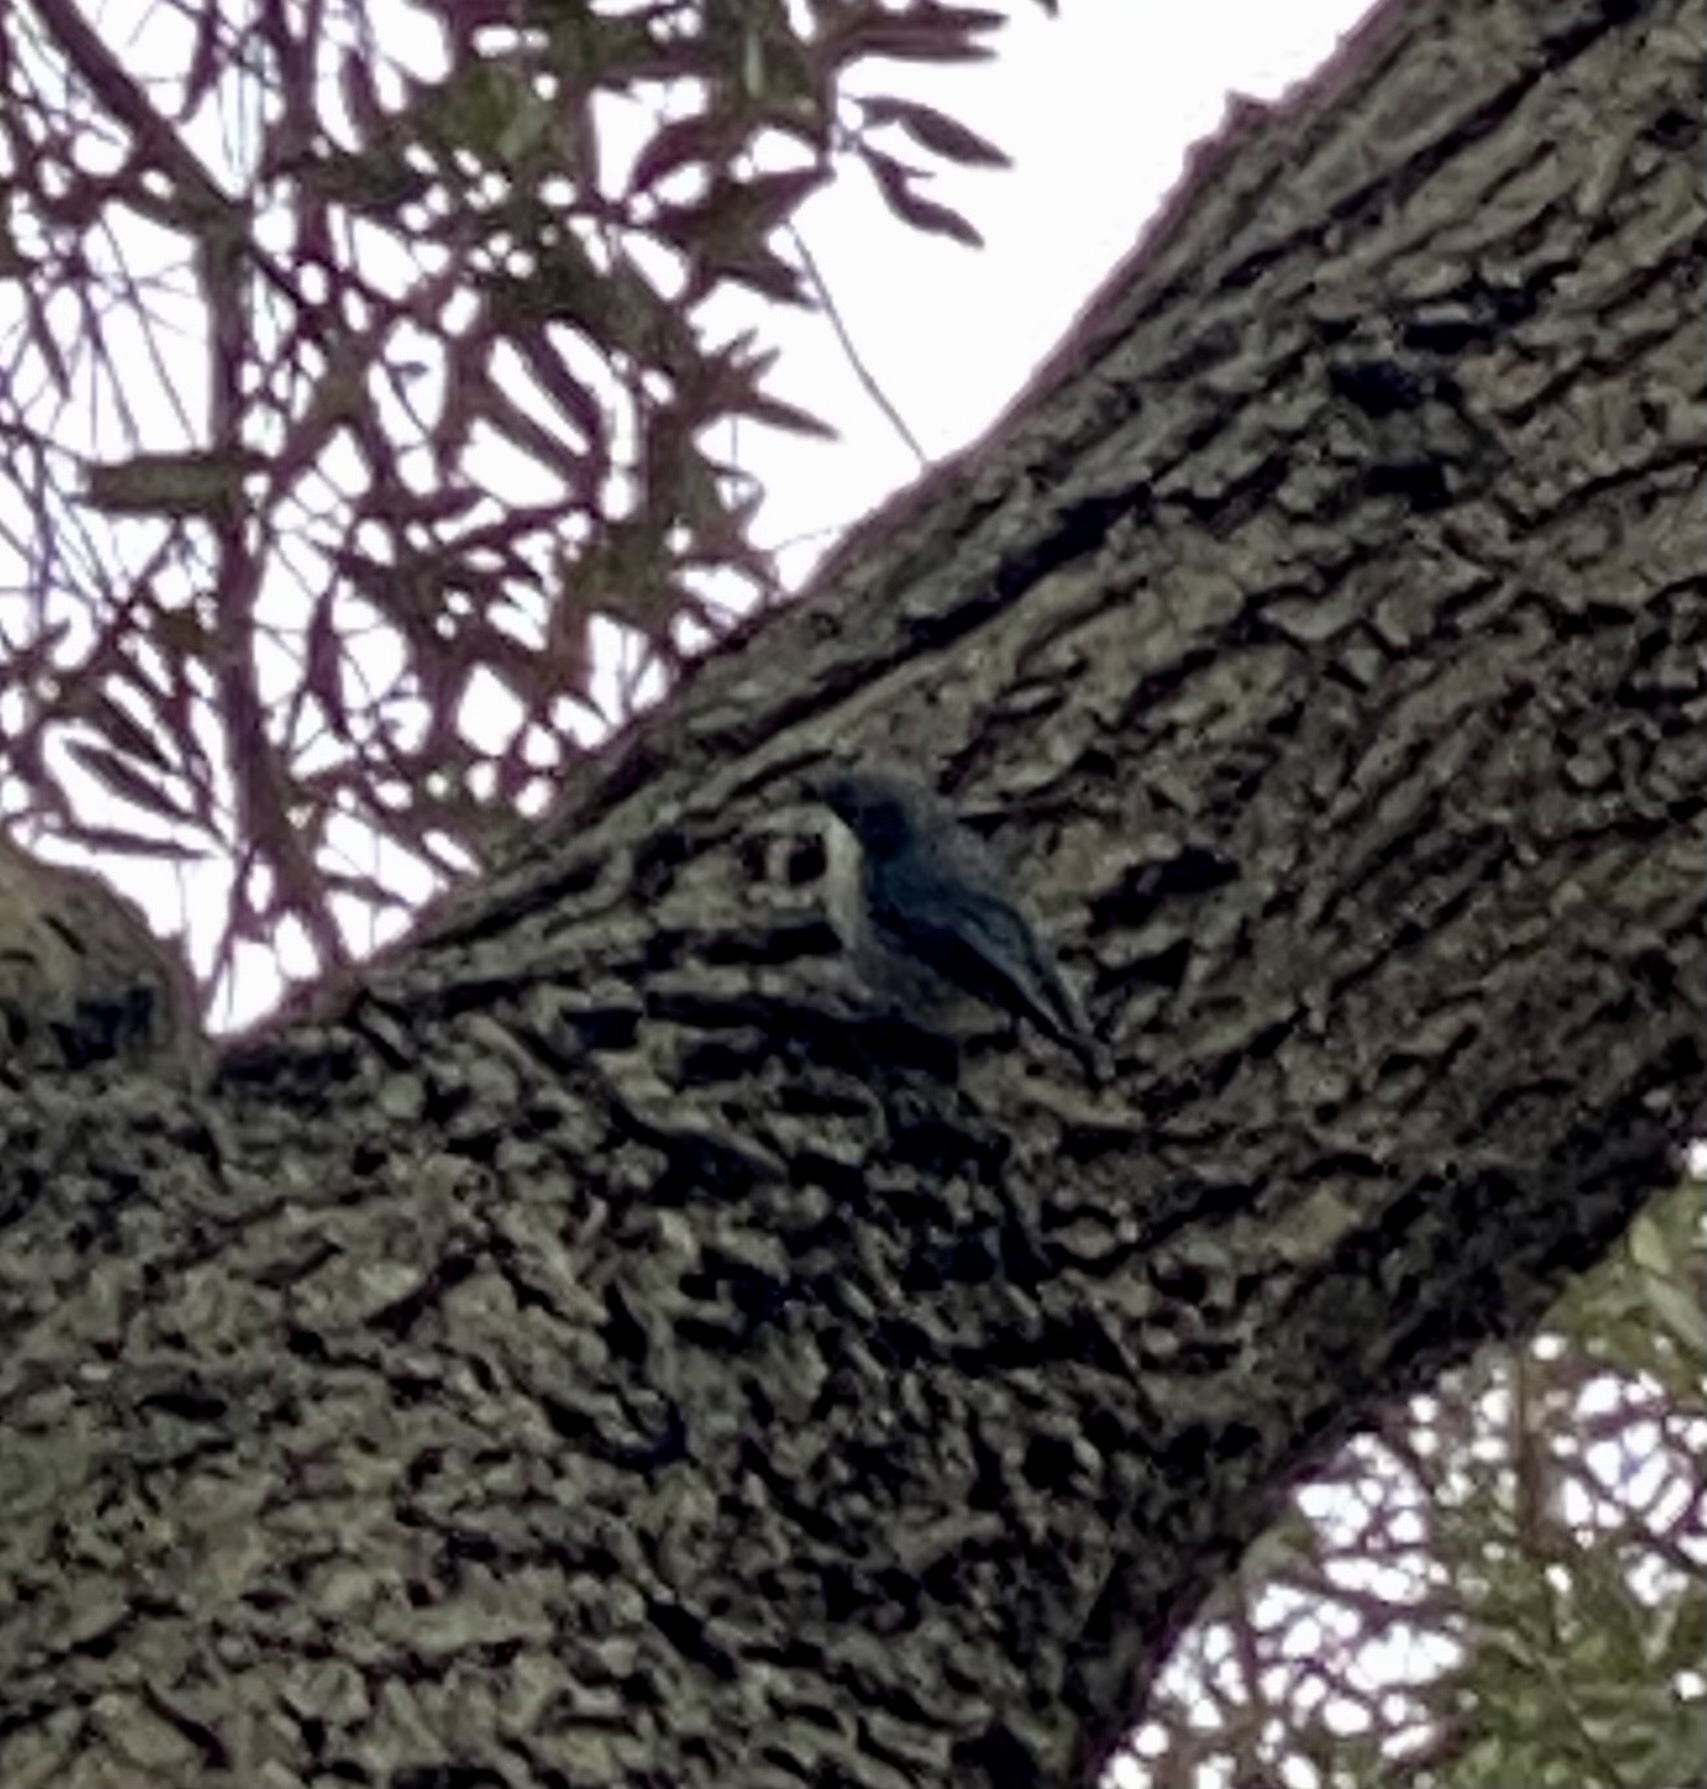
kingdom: Animalia
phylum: Chordata
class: Aves
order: Passeriformes
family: Sittidae
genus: Sitta
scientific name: Sitta pygmaea
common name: Pygmy nuthatch
